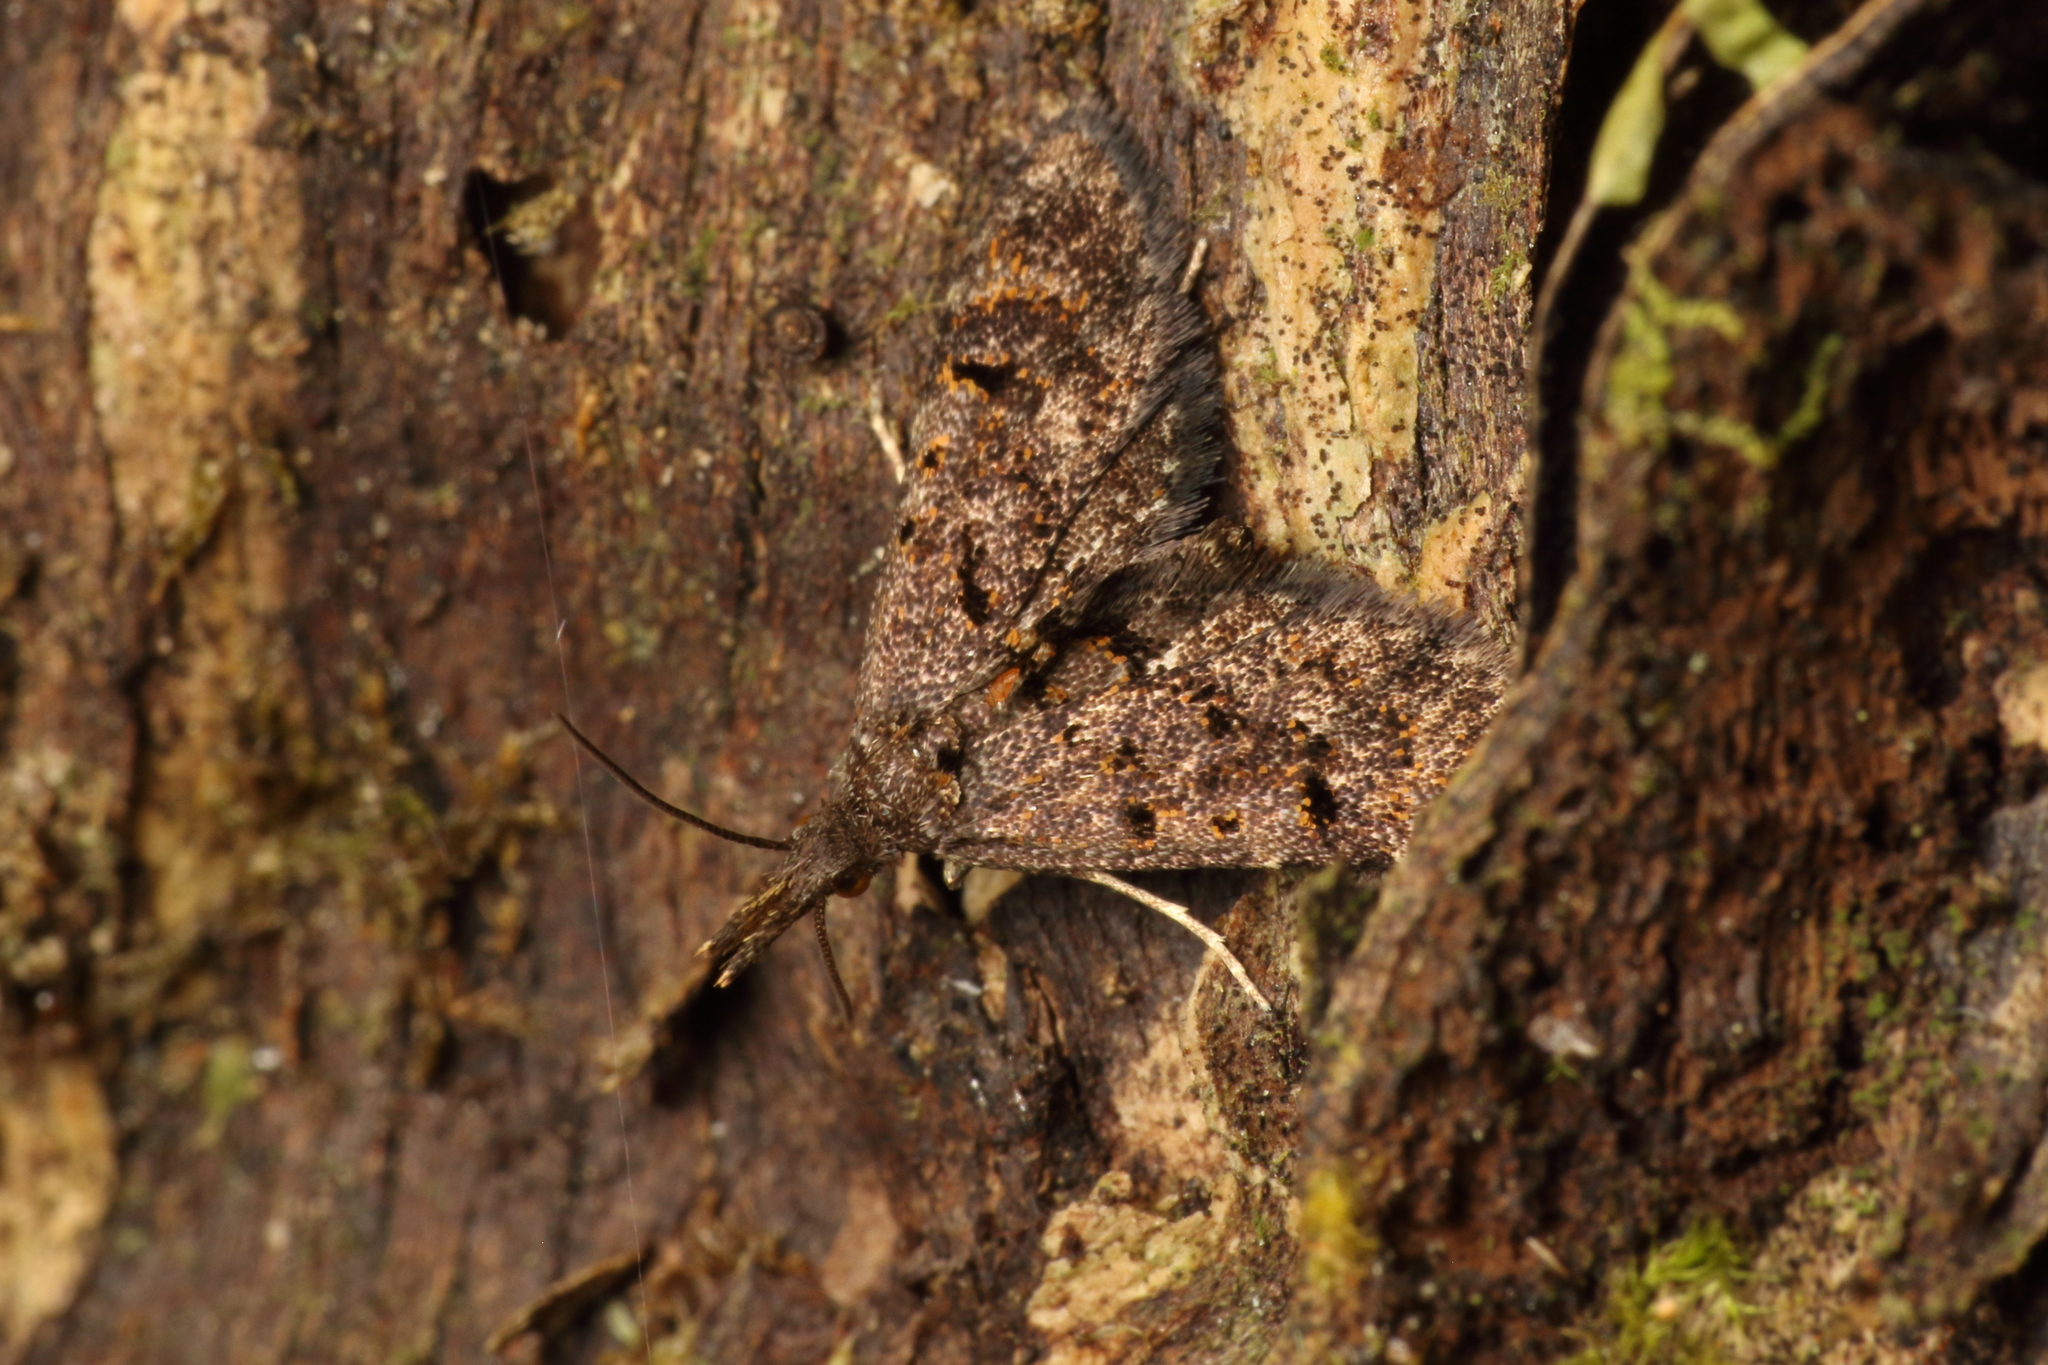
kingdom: Animalia
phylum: Arthropoda
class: Insecta
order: Lepidoptera
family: Copromorphidae
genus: Isonomeutis
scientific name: Isonomeutis amauropa
